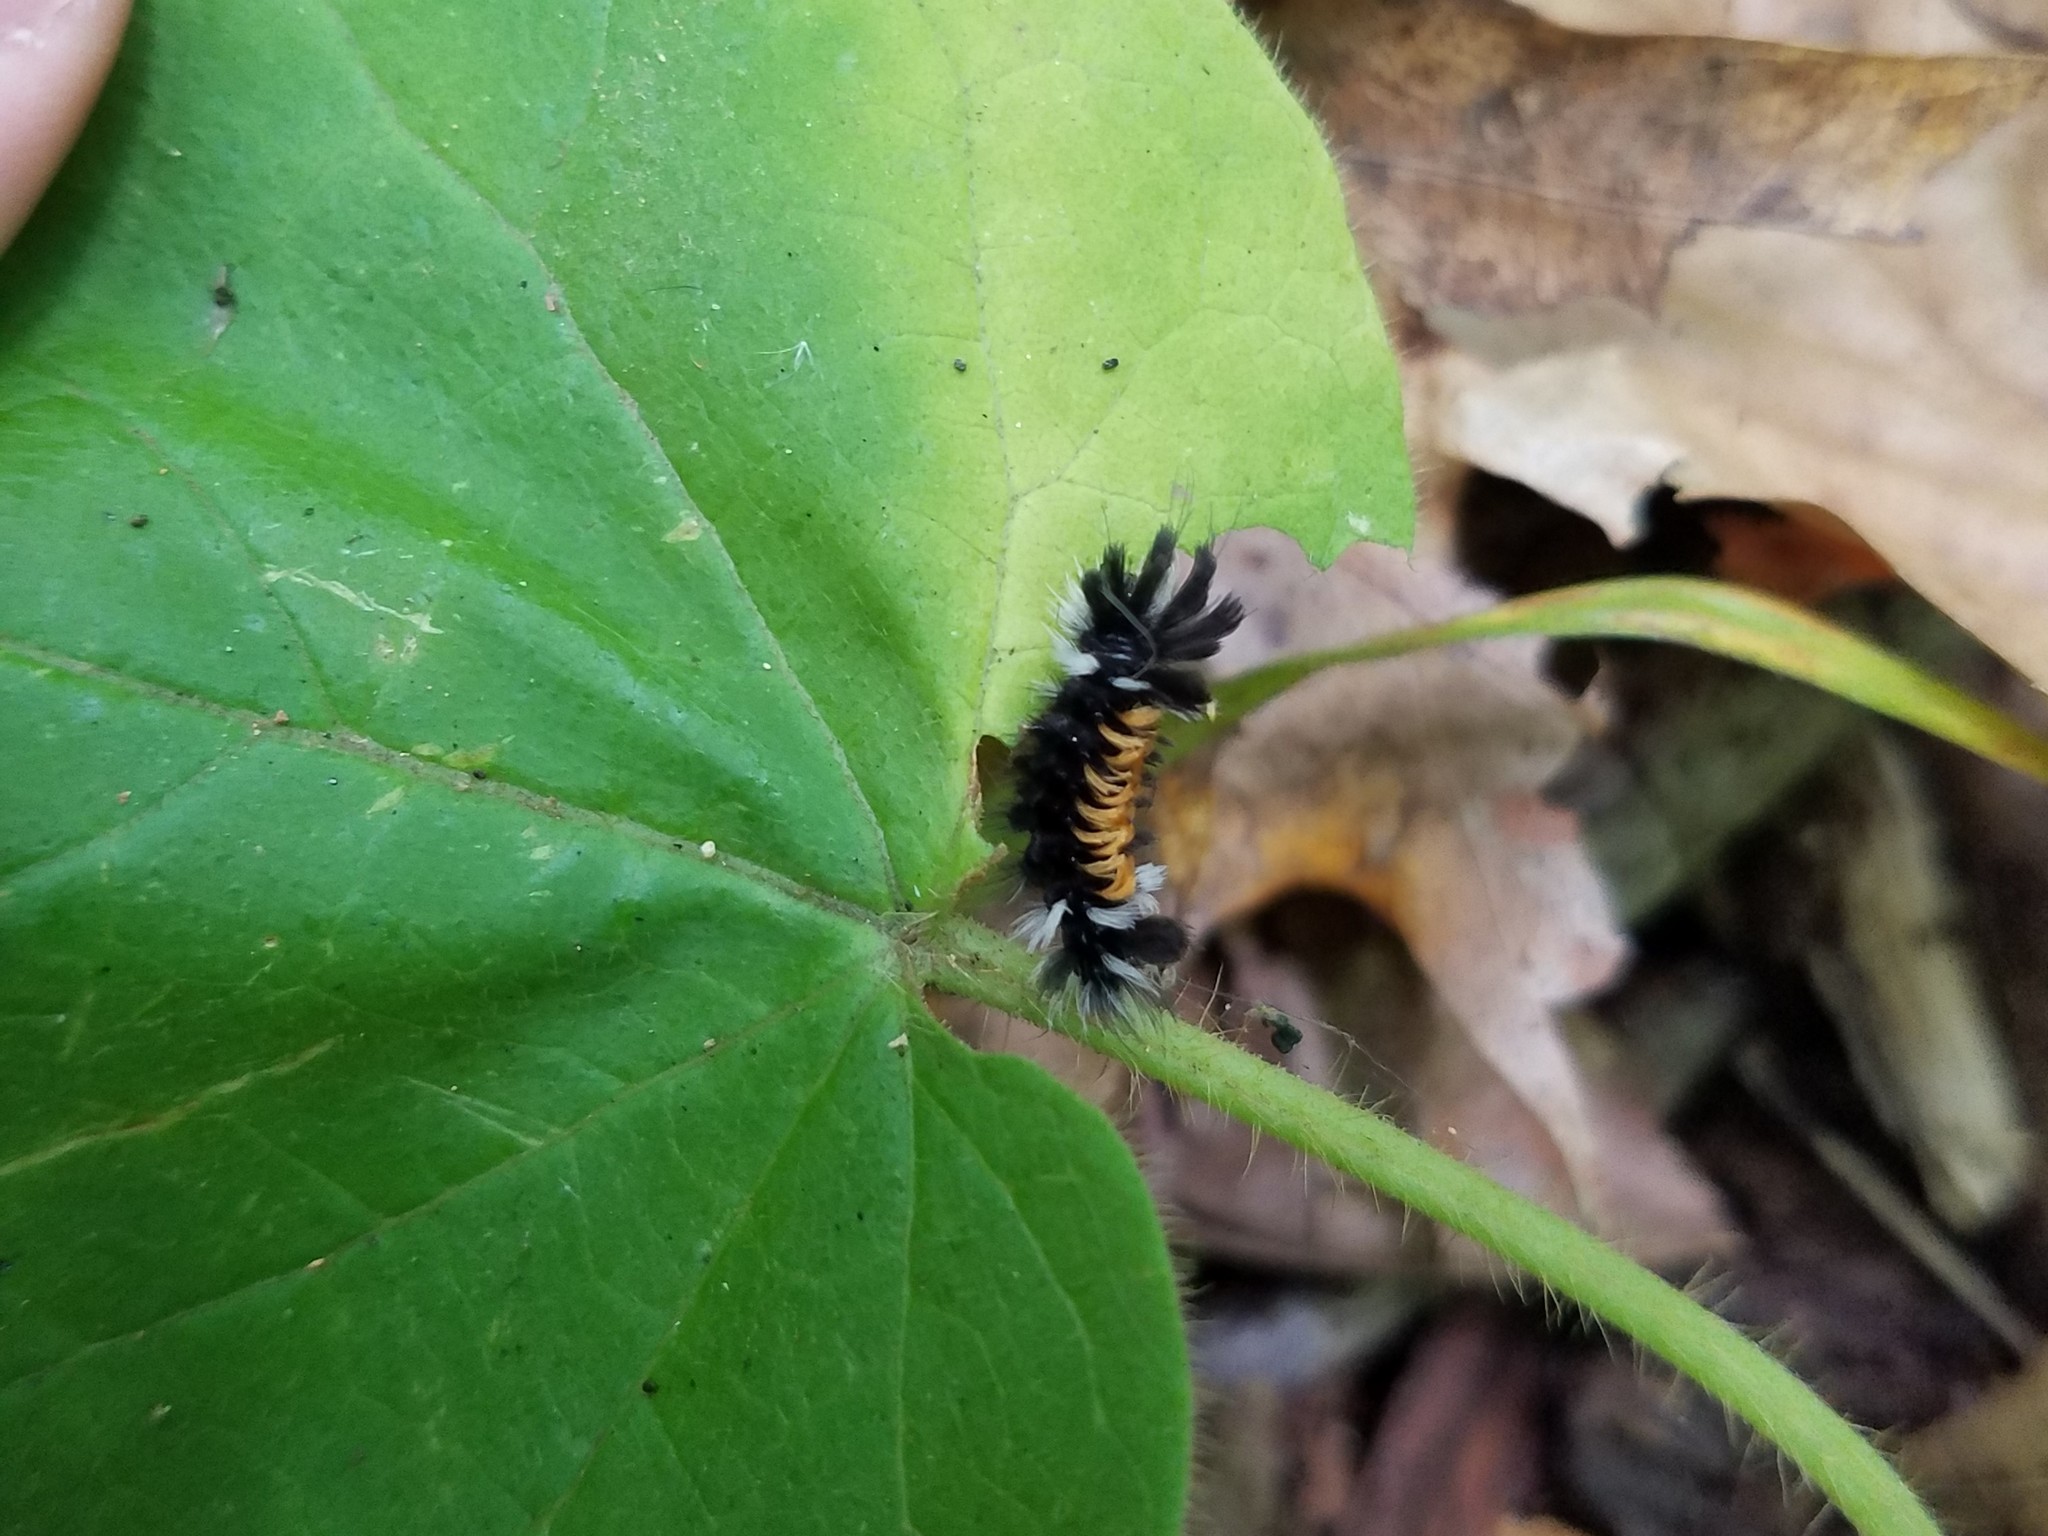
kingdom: Animalia
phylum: Arthropoda
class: Insecta
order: Lepidoptera
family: Erebidae
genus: Euchaetes
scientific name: Euchaetes egle
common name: Milkweed tussock moth
